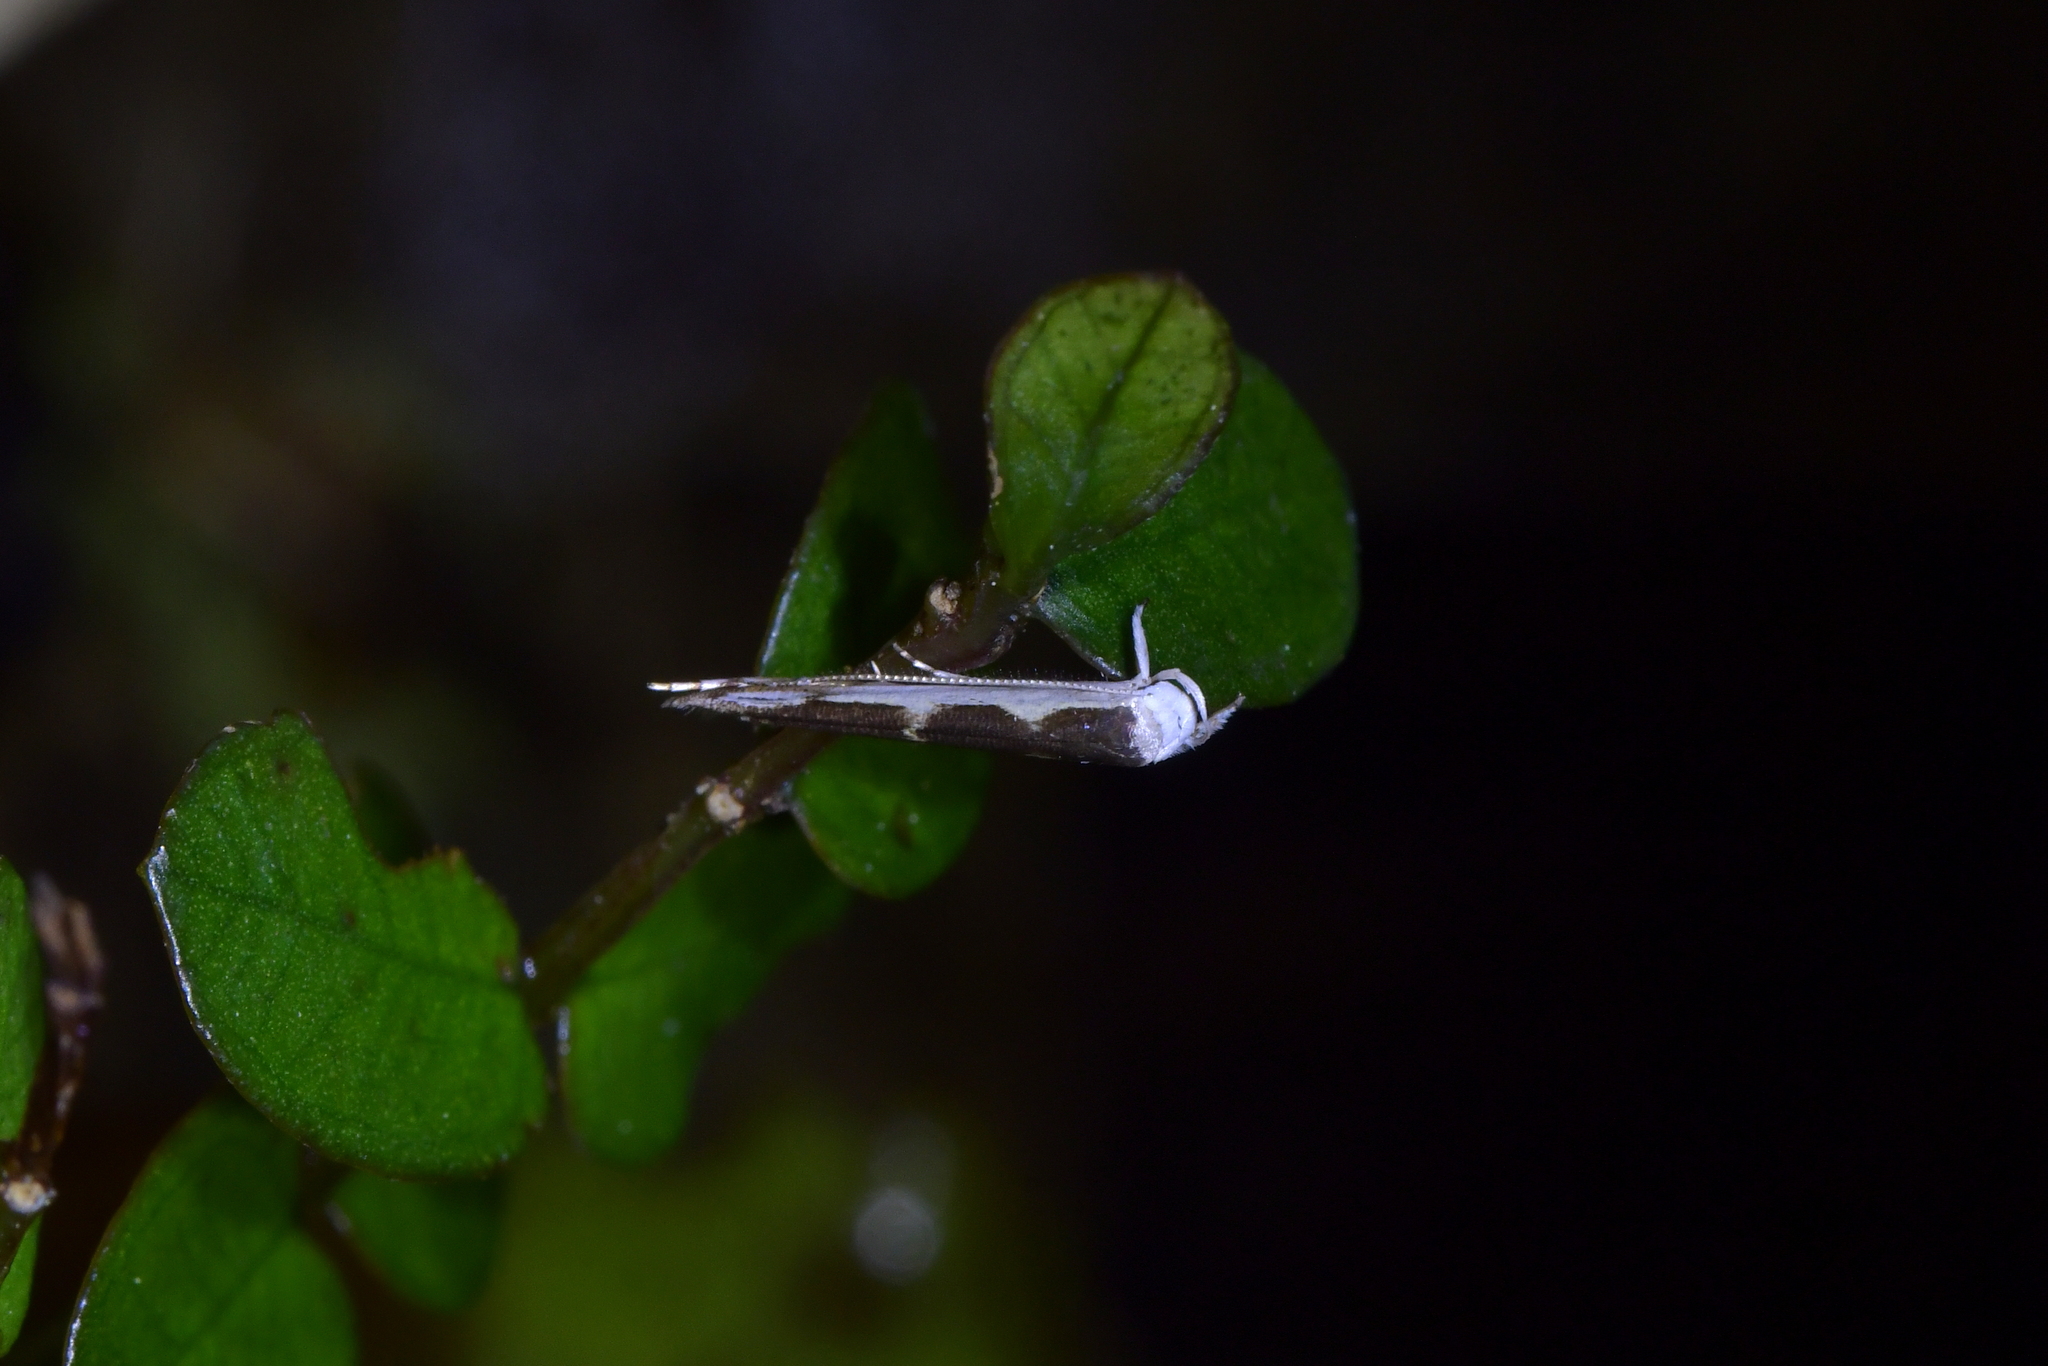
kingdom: Animalia
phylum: Arthropoda
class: Insecta
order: Lepidoptera
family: Roeslerstammiidae
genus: Vanicela
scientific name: Vanicela disjunctella
